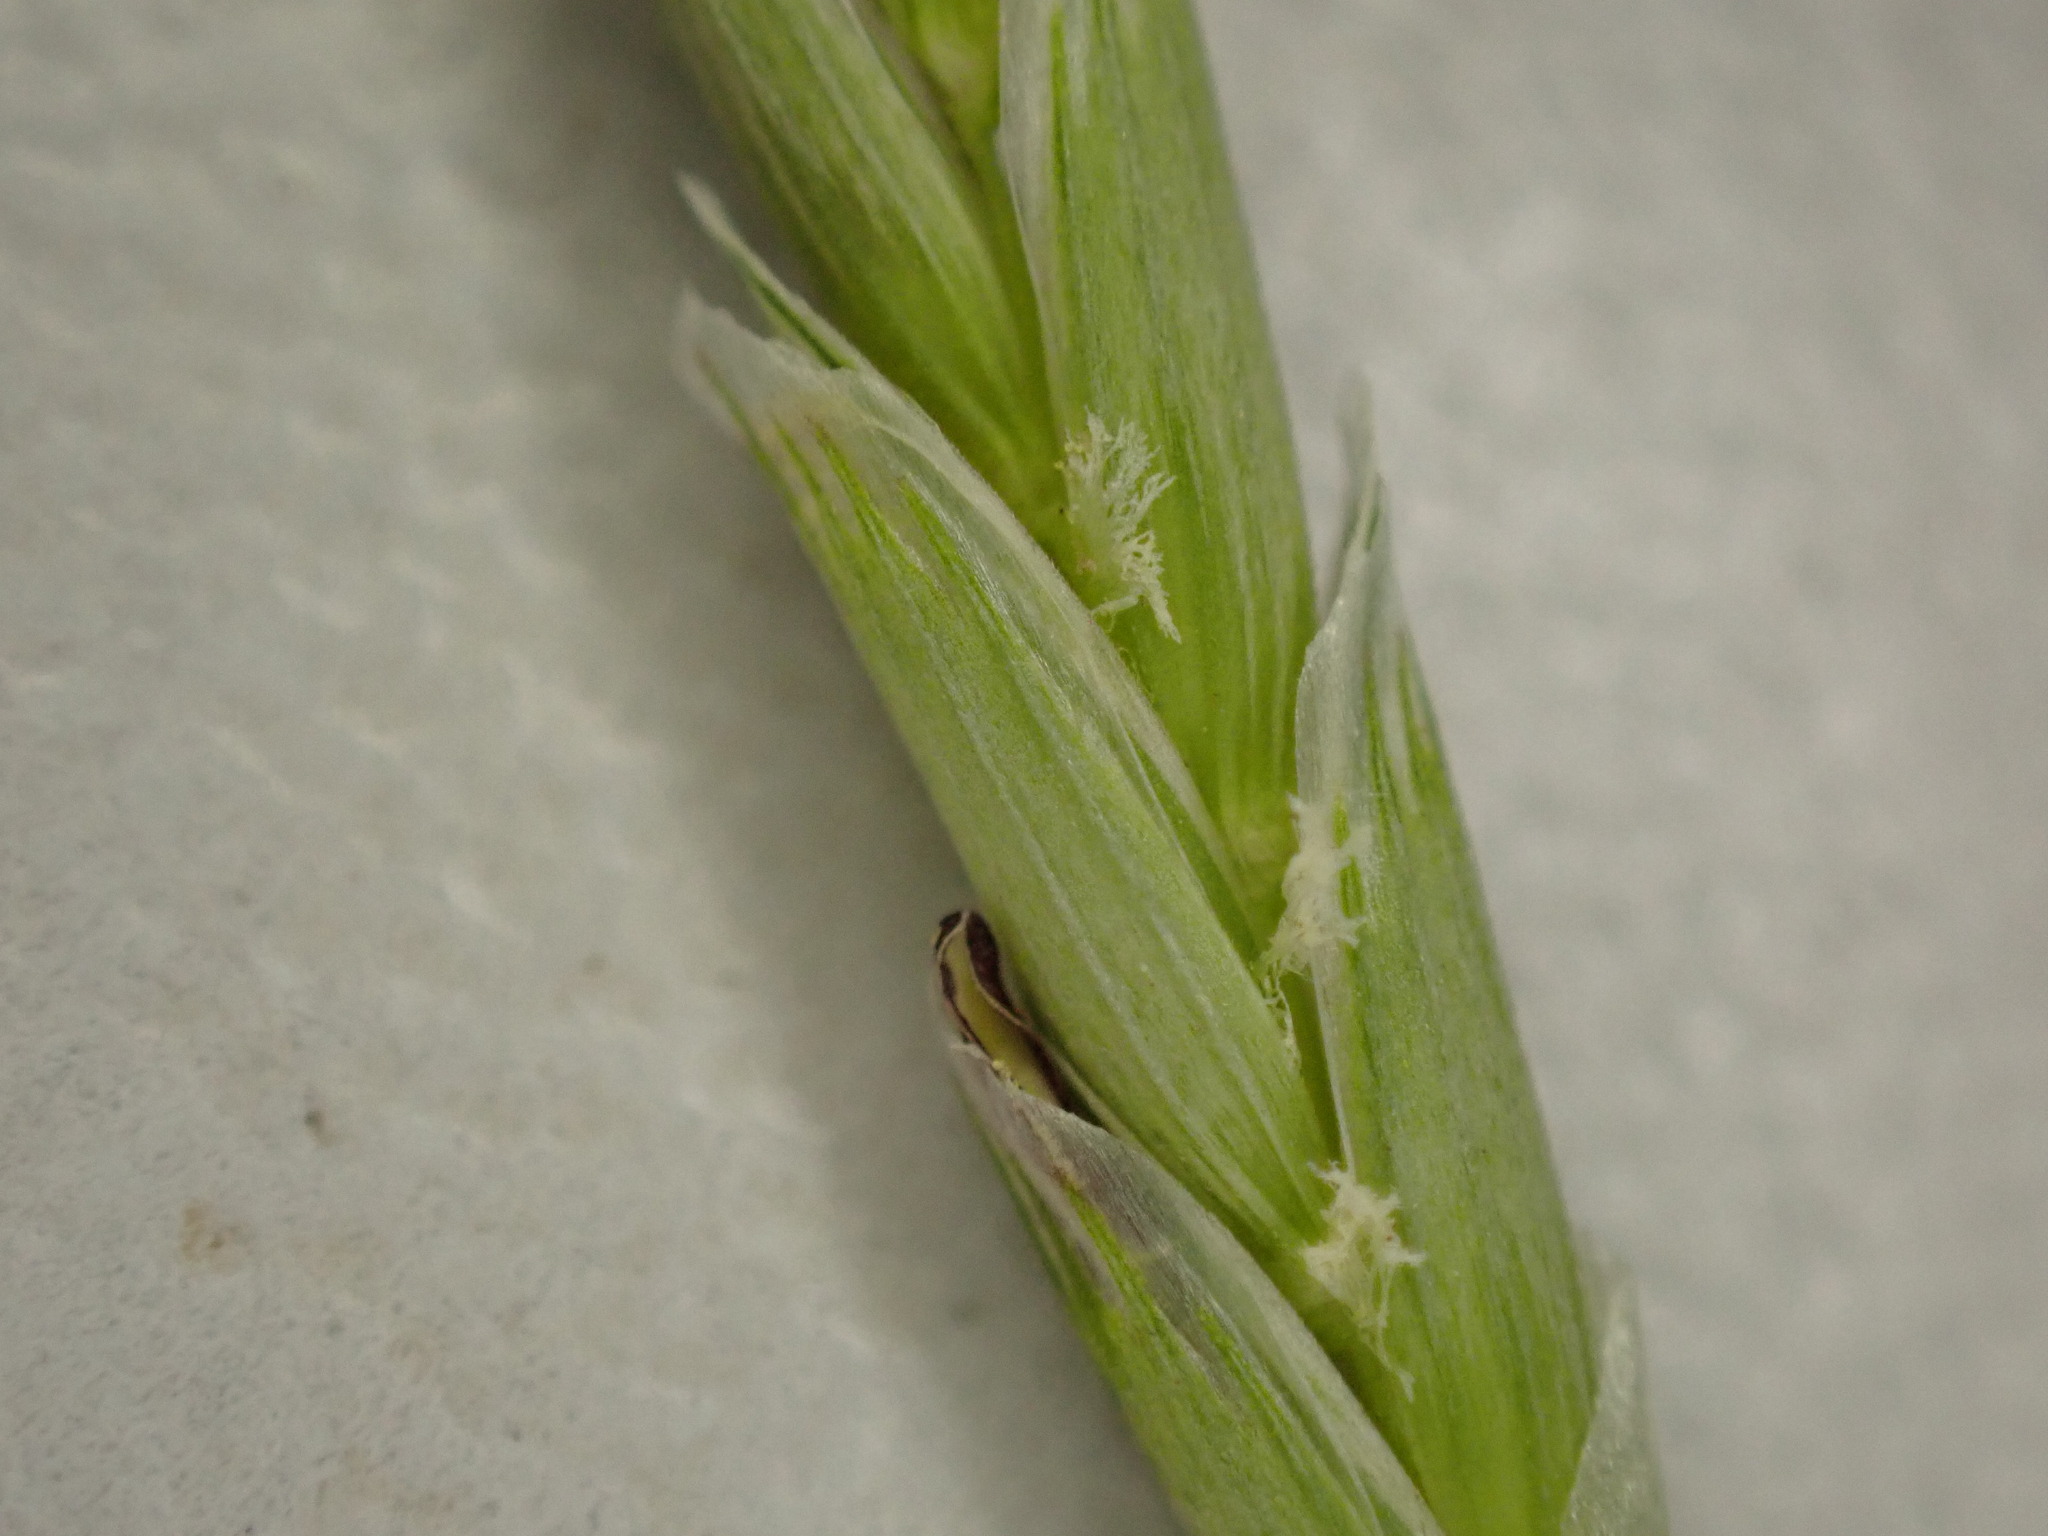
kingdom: Plantae
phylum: Tracheophyta
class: Liliopsida
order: Poales
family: Poaceae
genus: Glyceria
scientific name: Glyceria fluitans
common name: Floating sweet-grass
